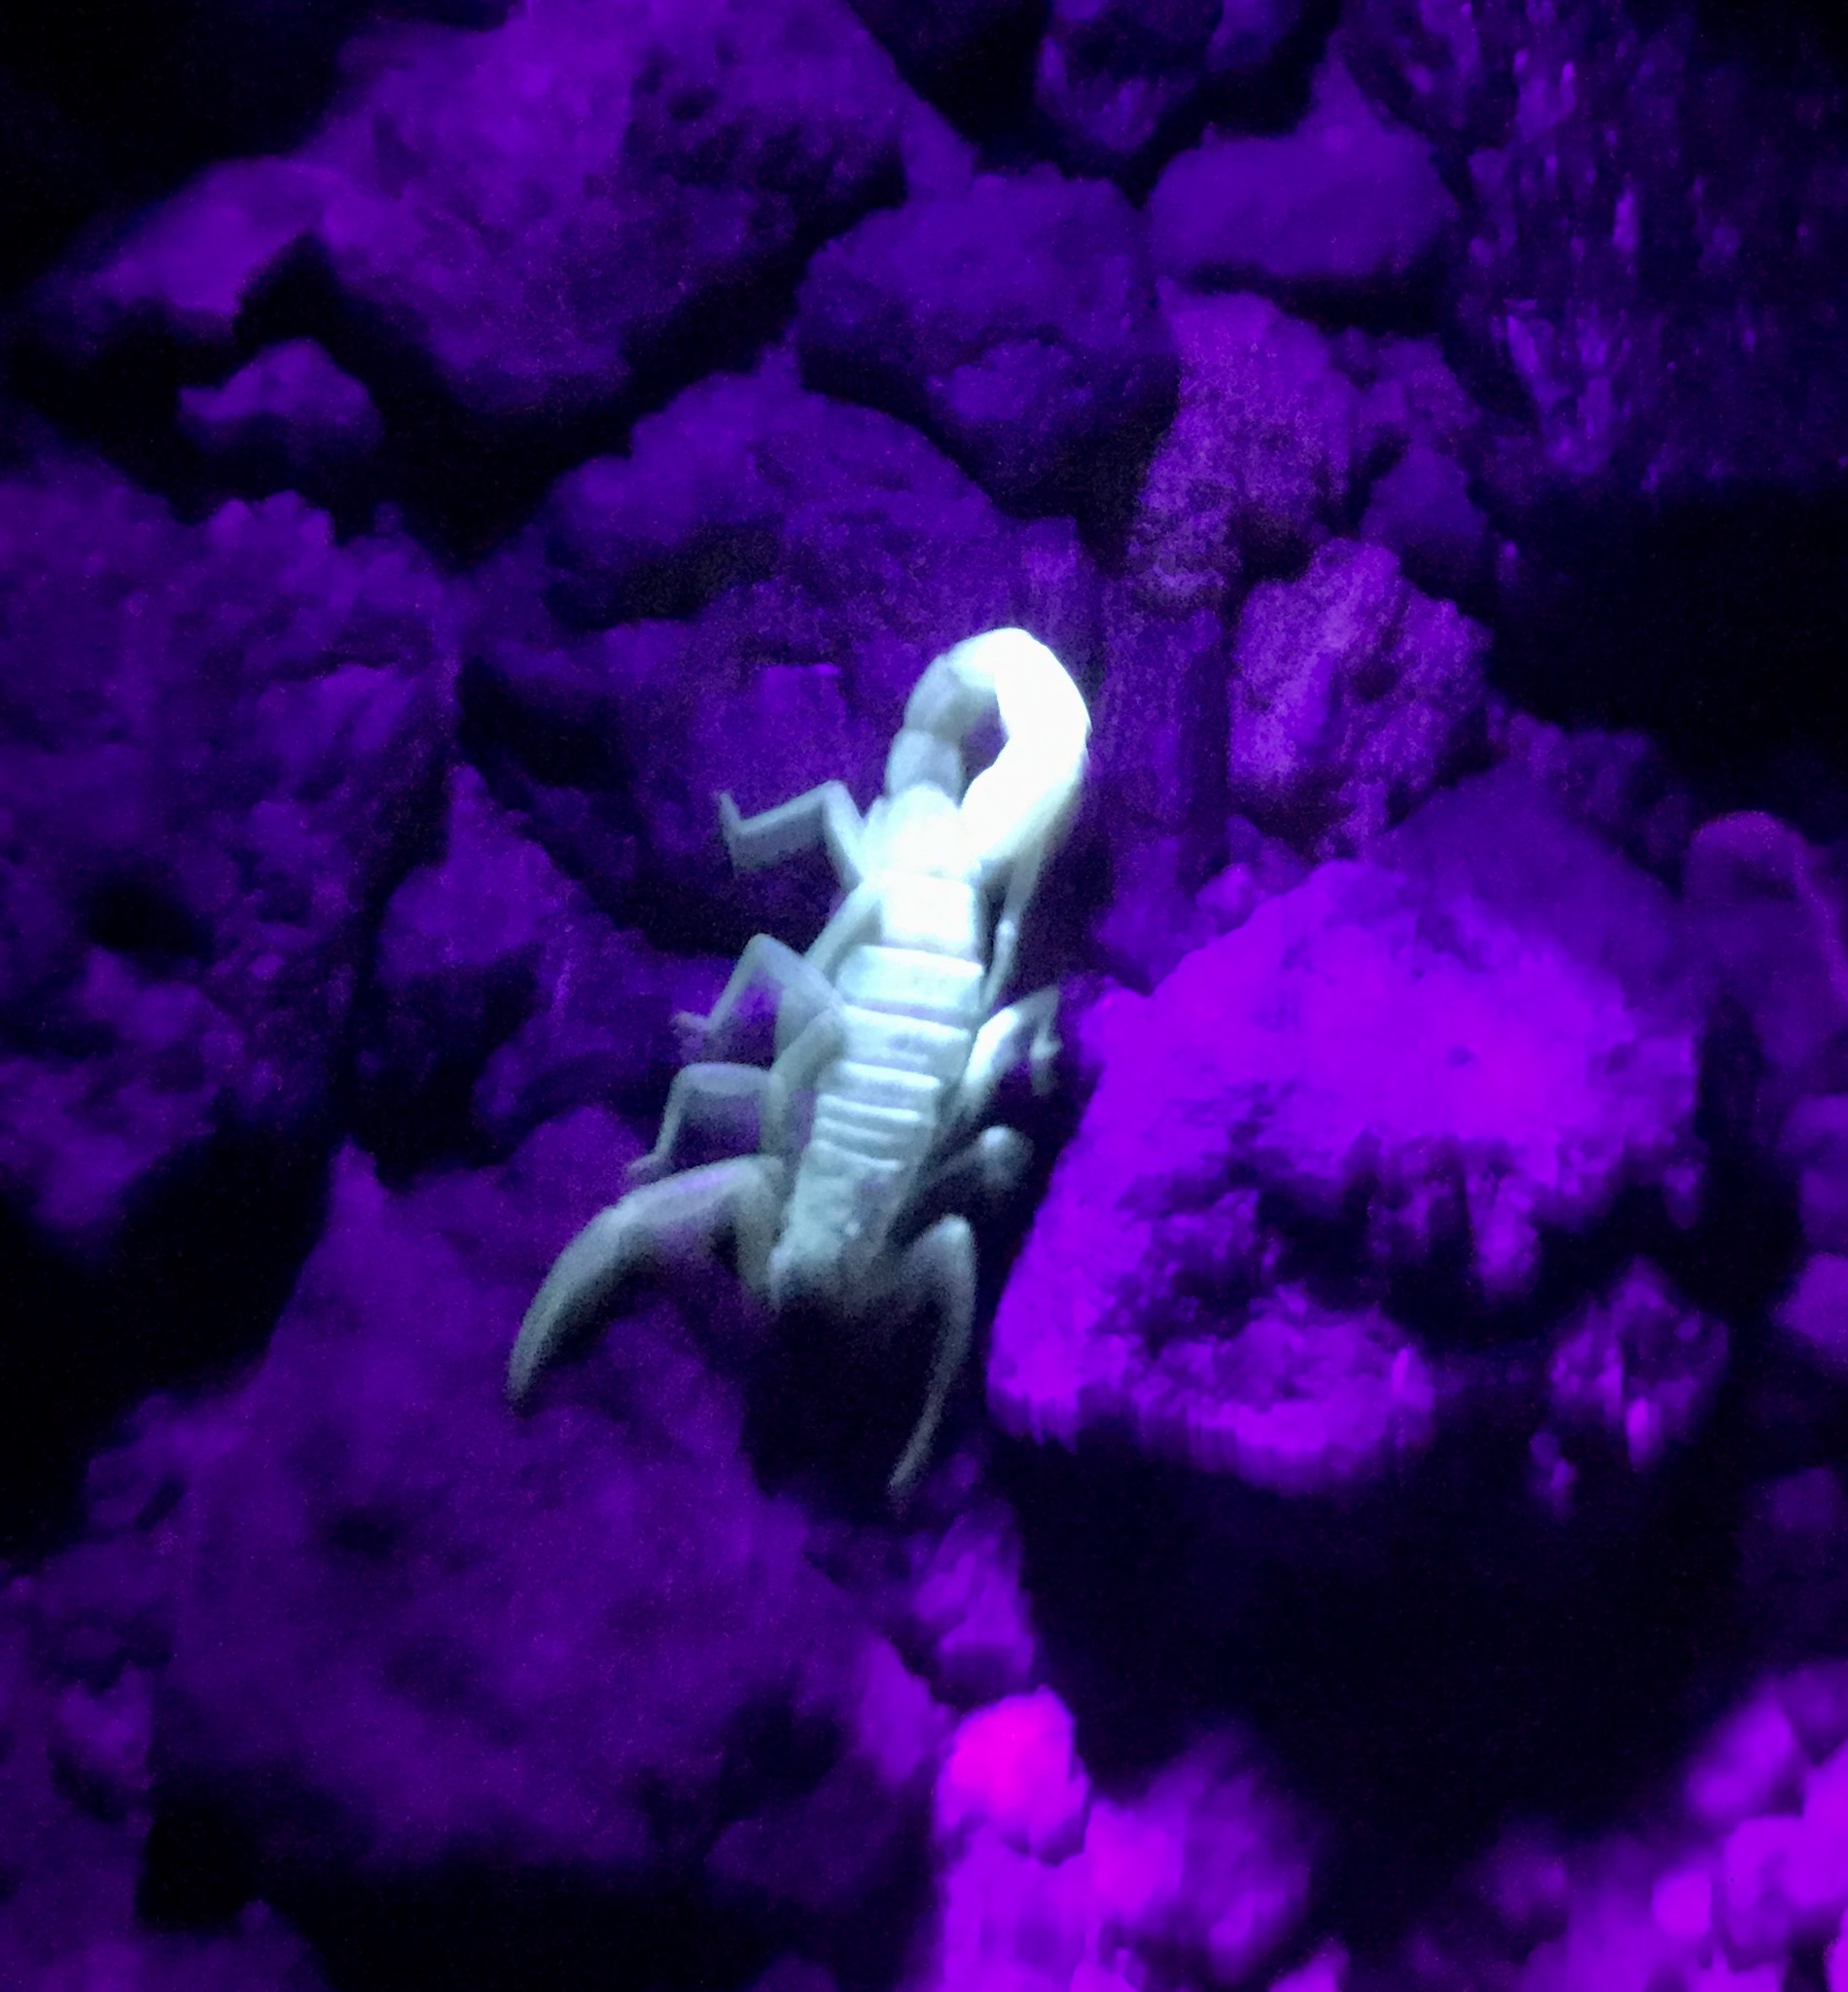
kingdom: Animalia
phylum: Arthropoda
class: Arachnida
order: Scorpiones
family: Vaejovidae
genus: Paravaejovis
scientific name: Paravaejovis confusus
